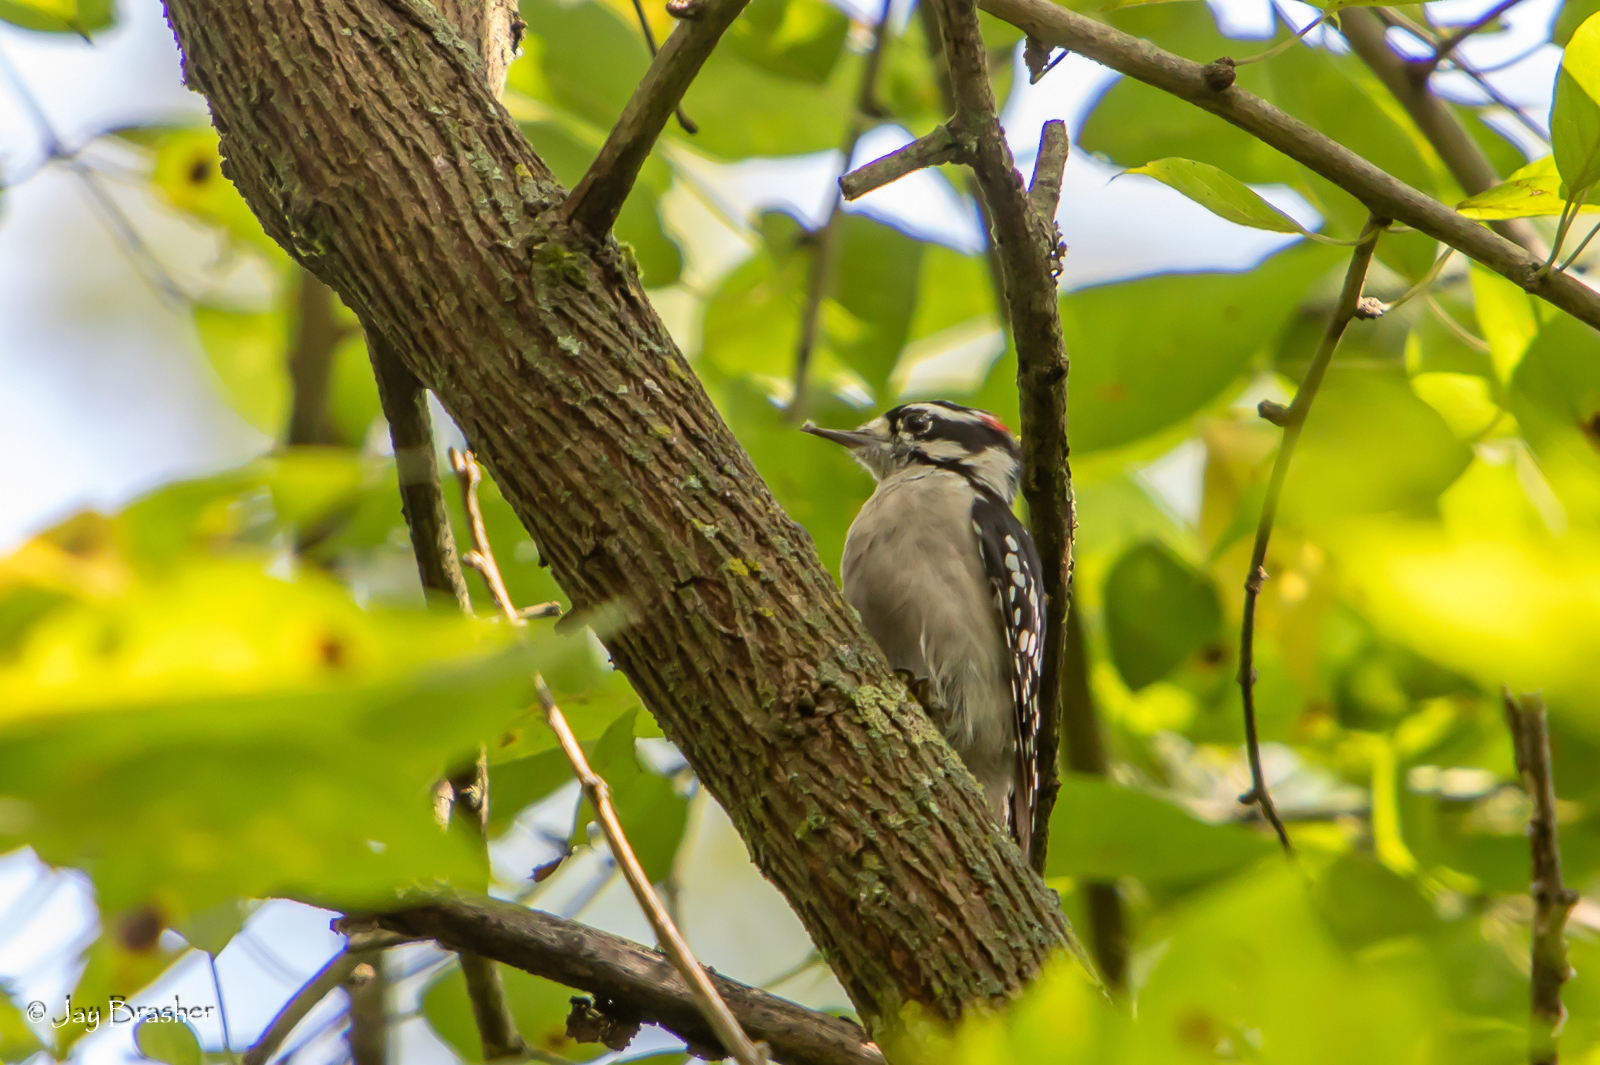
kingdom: Animalia
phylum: Chordata
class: Aves
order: Piciformes
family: Picidae
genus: Dryobates
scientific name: Dryobates pubescens
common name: Downy woodpecker
